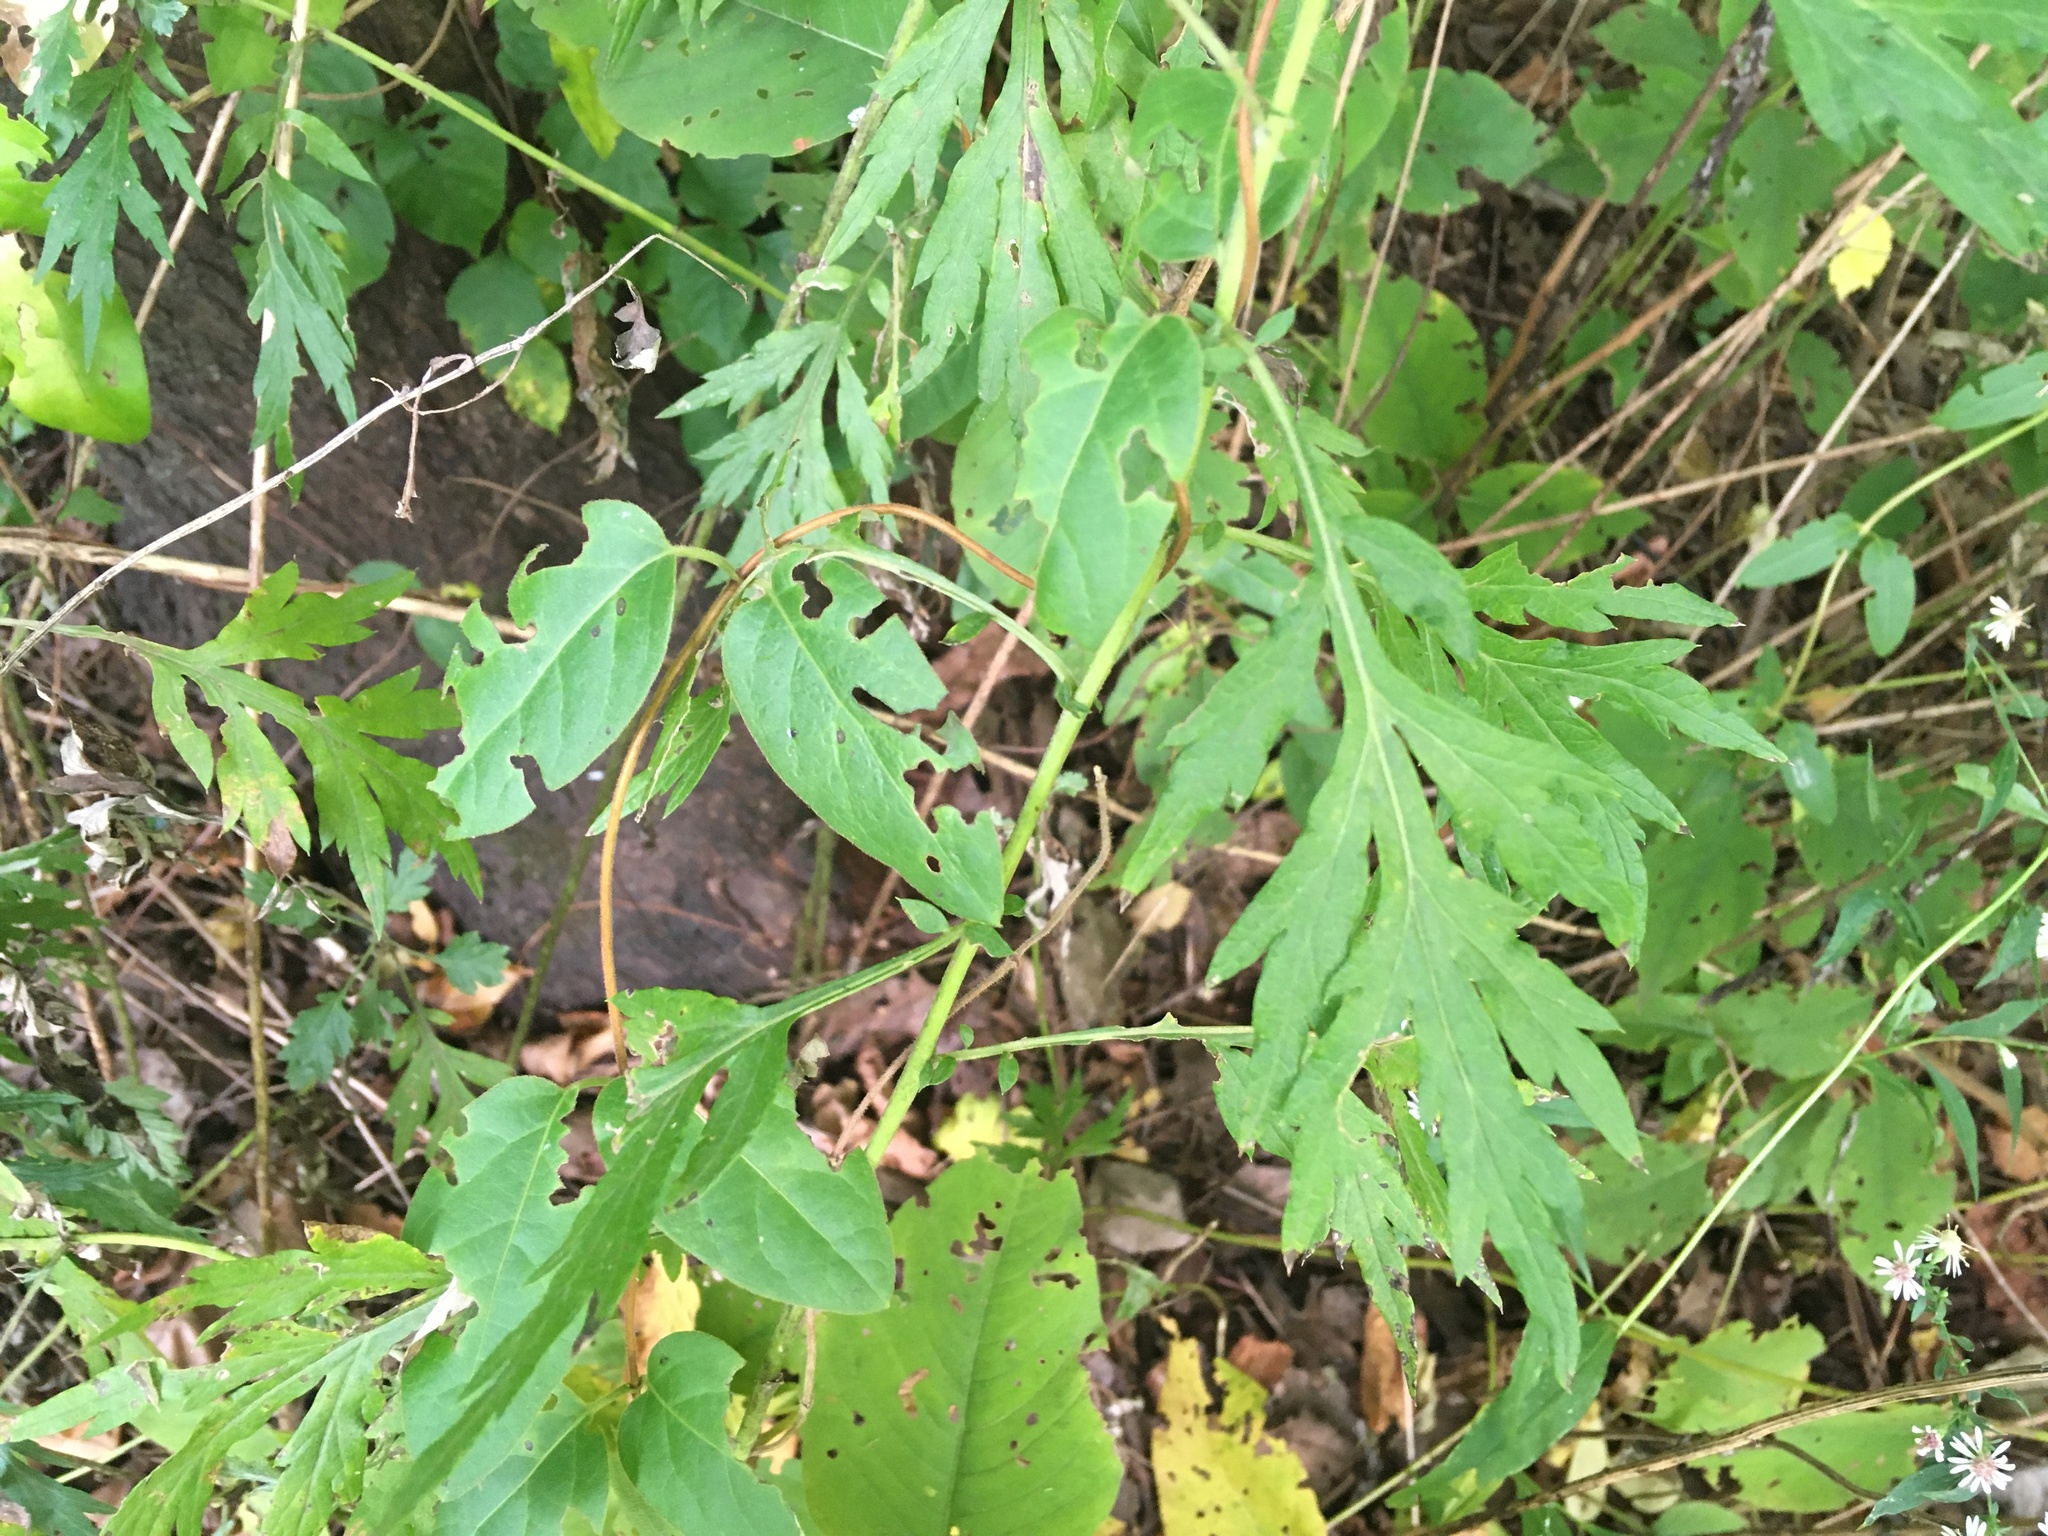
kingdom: Plantae
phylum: Tracheophyta
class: Magnoliopsida
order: Asterales
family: Asteraceae
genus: Artemisia
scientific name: Artemisia vulgaris
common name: Mugwort
